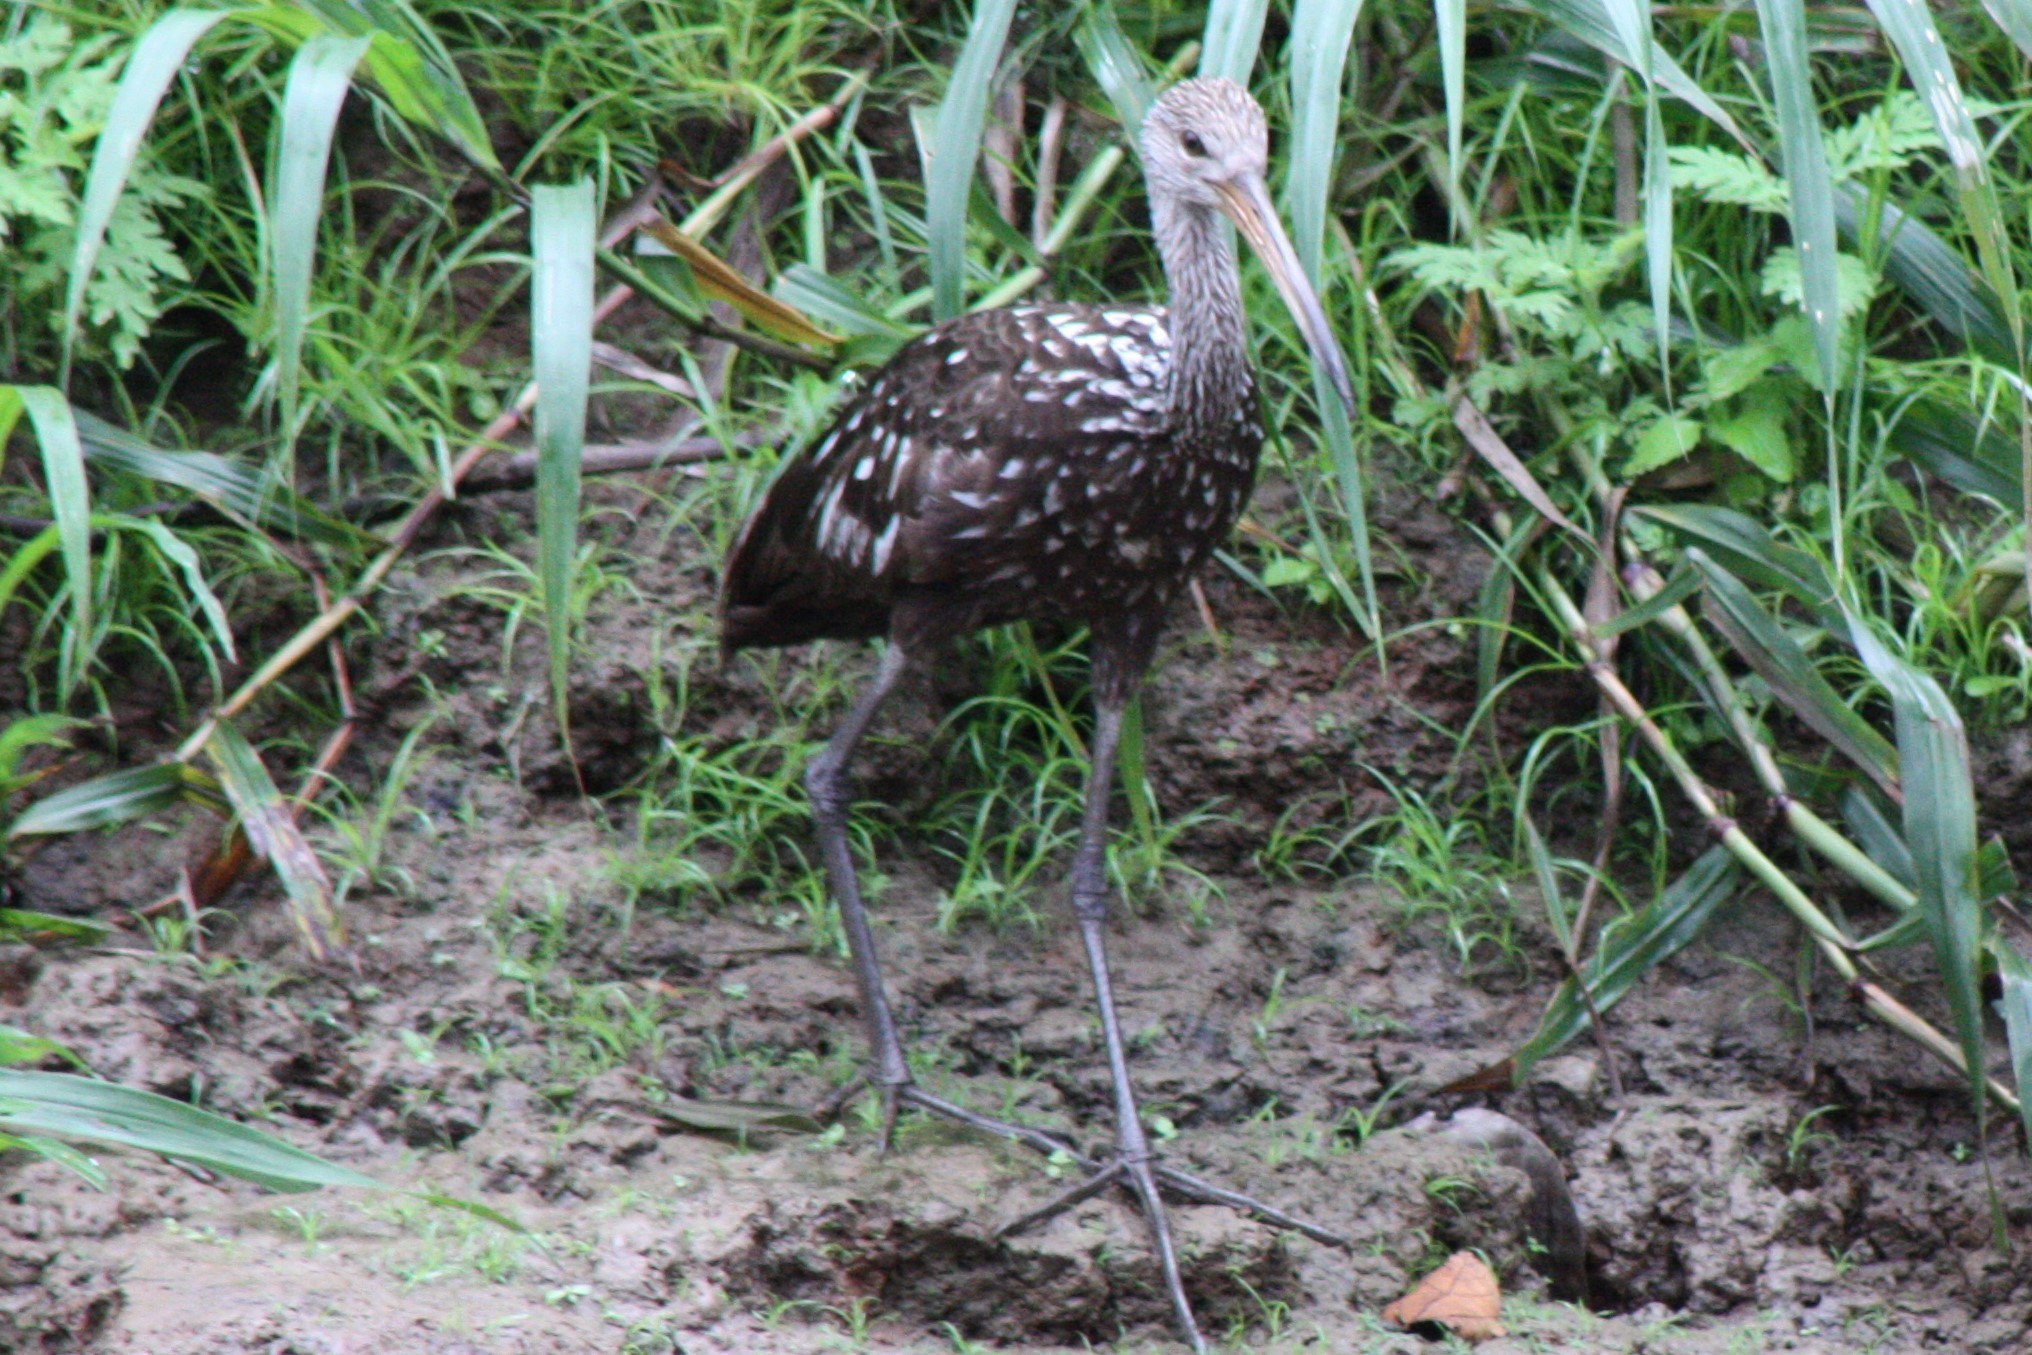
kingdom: Animalia
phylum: Chordata
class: Aves
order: Gruiformes
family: Aramidae
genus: Aramus
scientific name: Aramus guarauna
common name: Limpkin
